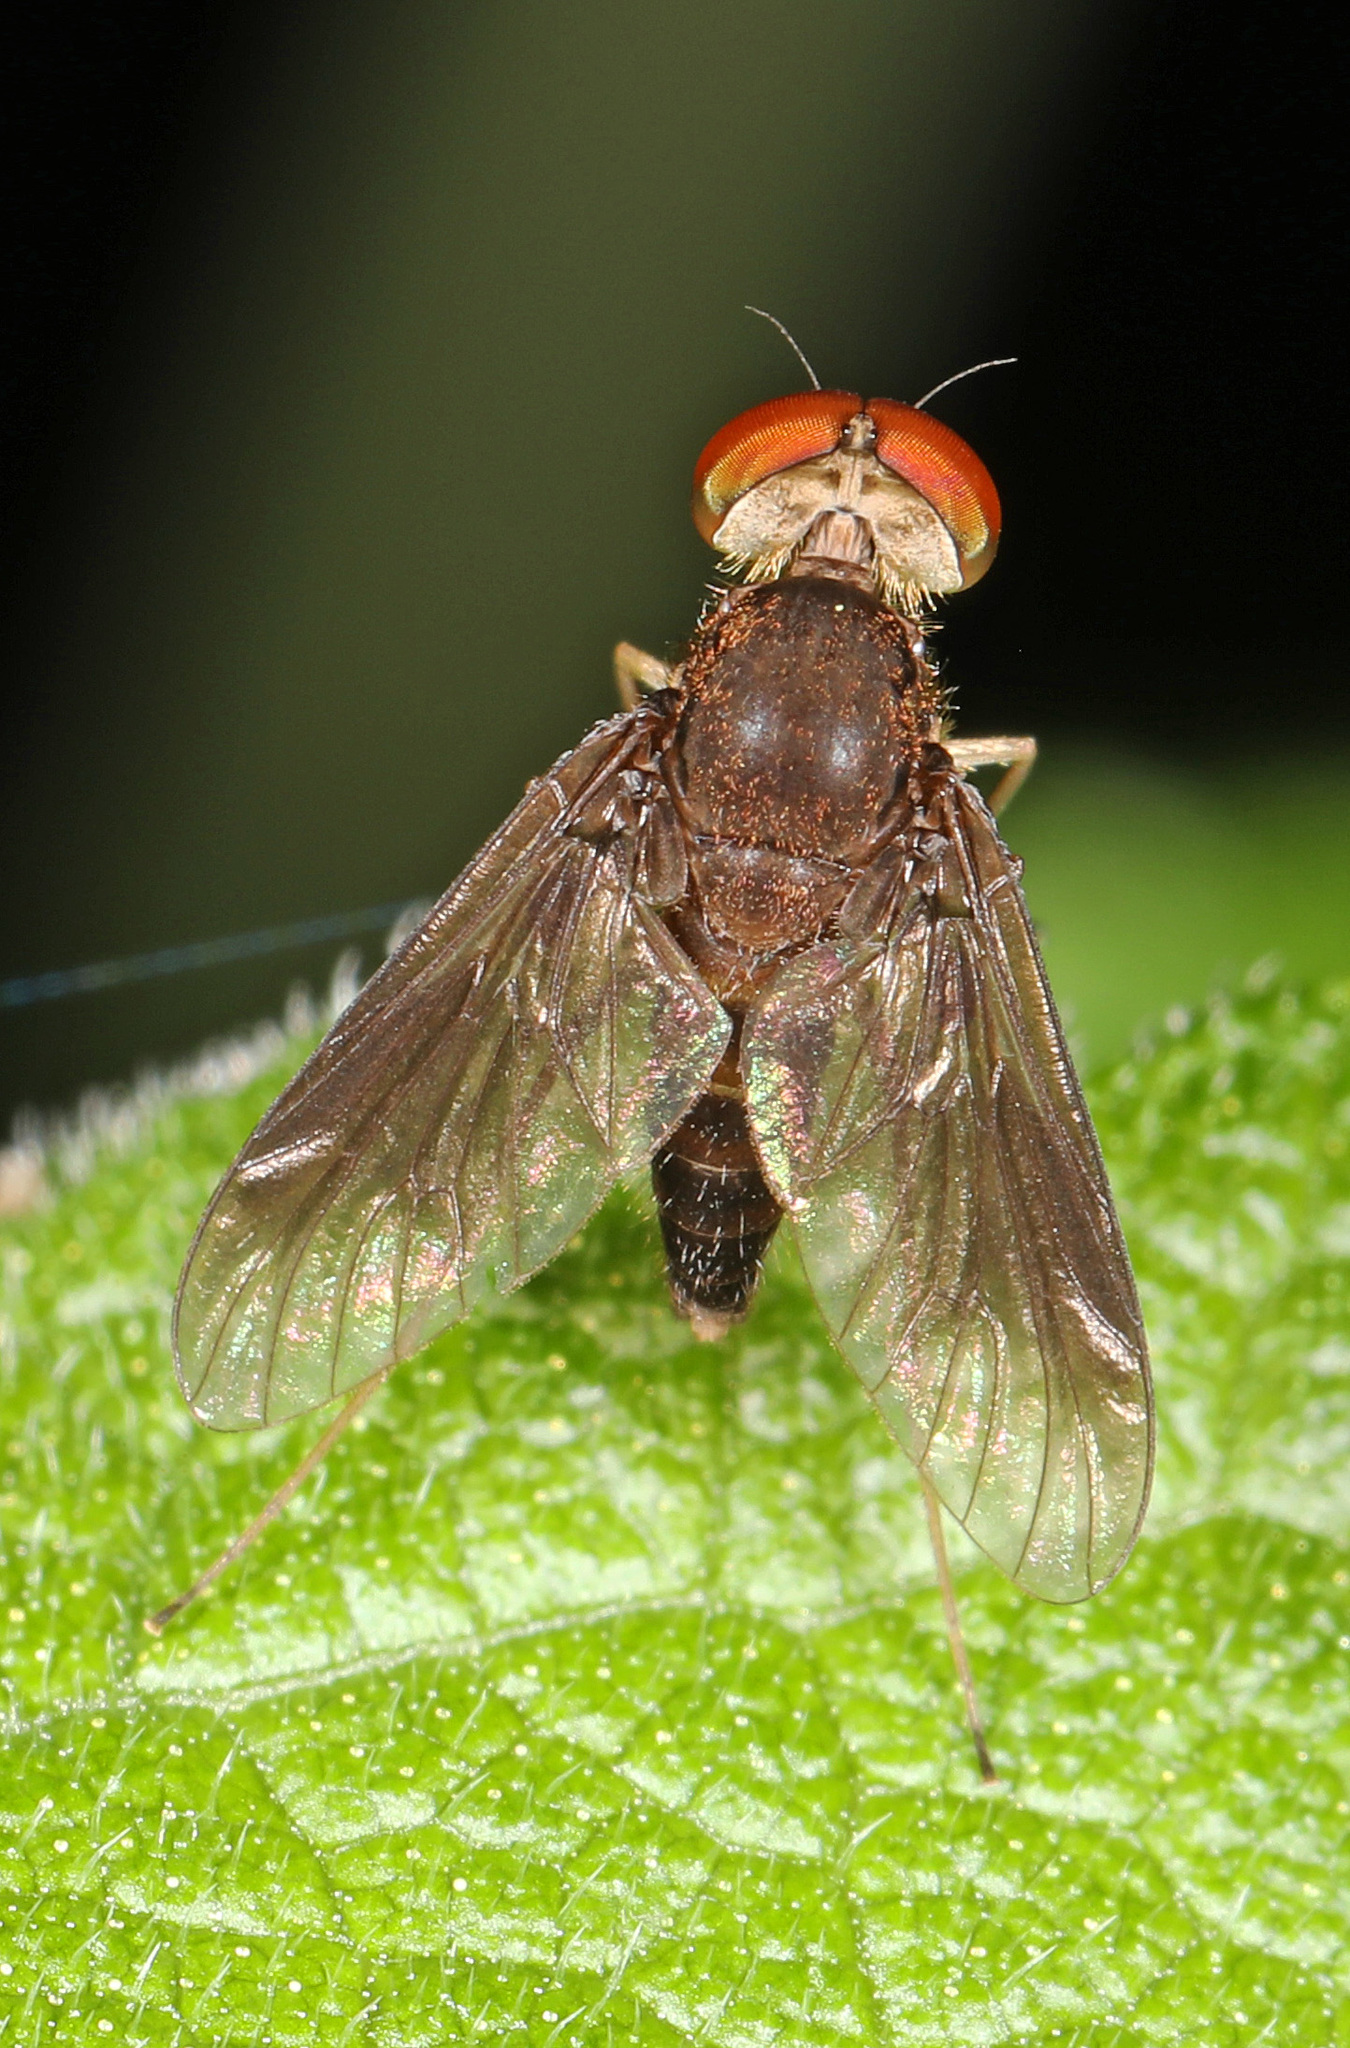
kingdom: Animalia
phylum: Arthropoda
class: Insecta
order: Diptera
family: Rhagionidae
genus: Chrysopilus
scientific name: Chrysopilus quadratus
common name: Quadrate snipe fly
